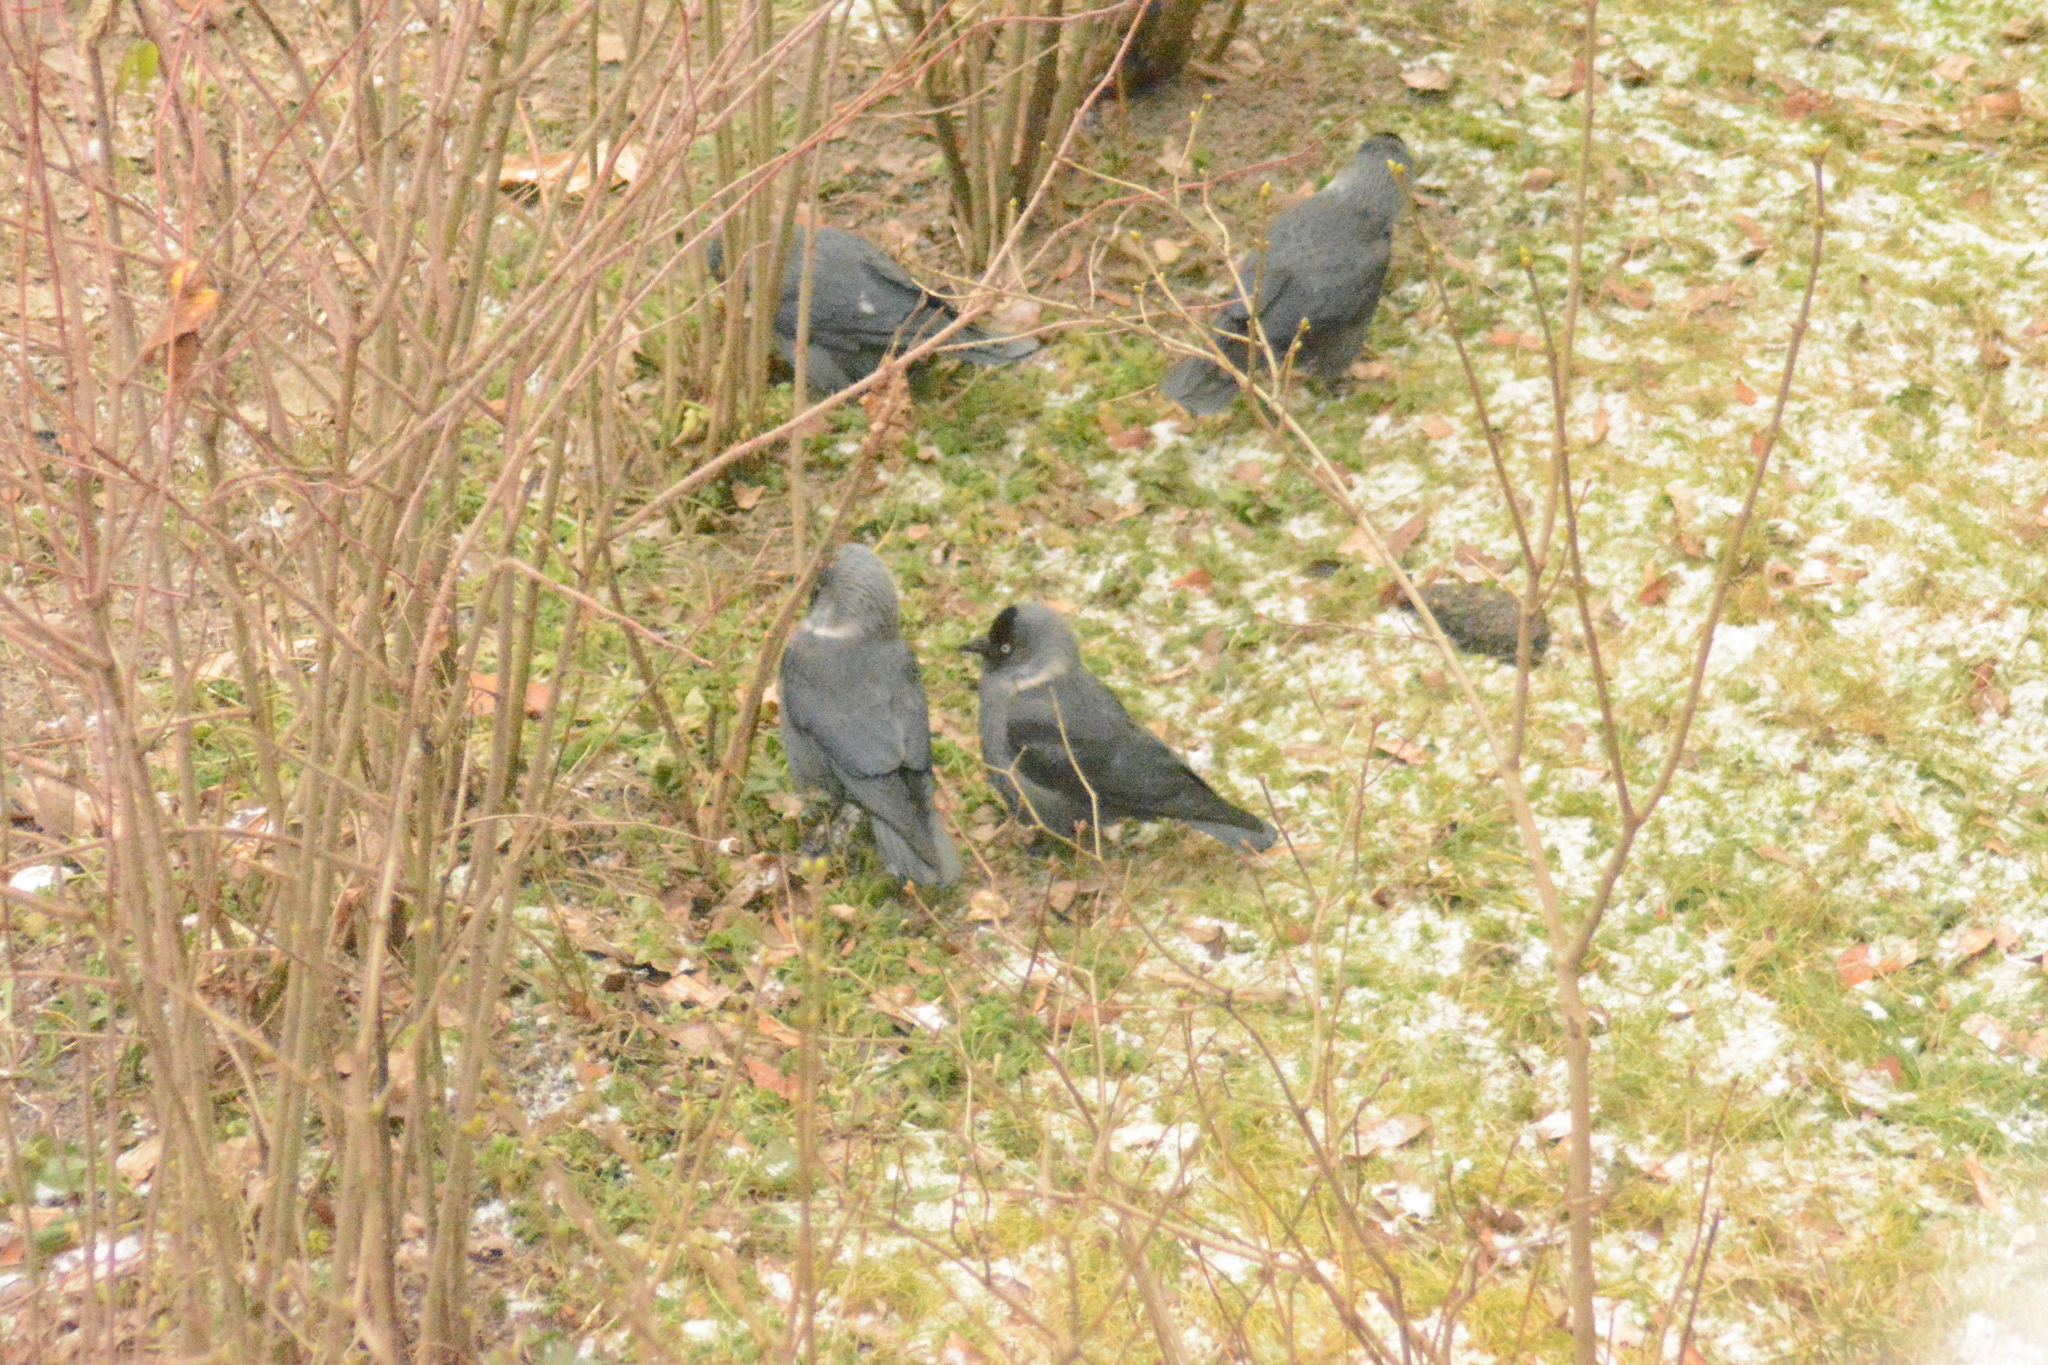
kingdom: Animalia
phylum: Chordata
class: Aves
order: Passeriformes
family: Corvidae
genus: Coloeus
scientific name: Coloeus monedula
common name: Western jackdaw
